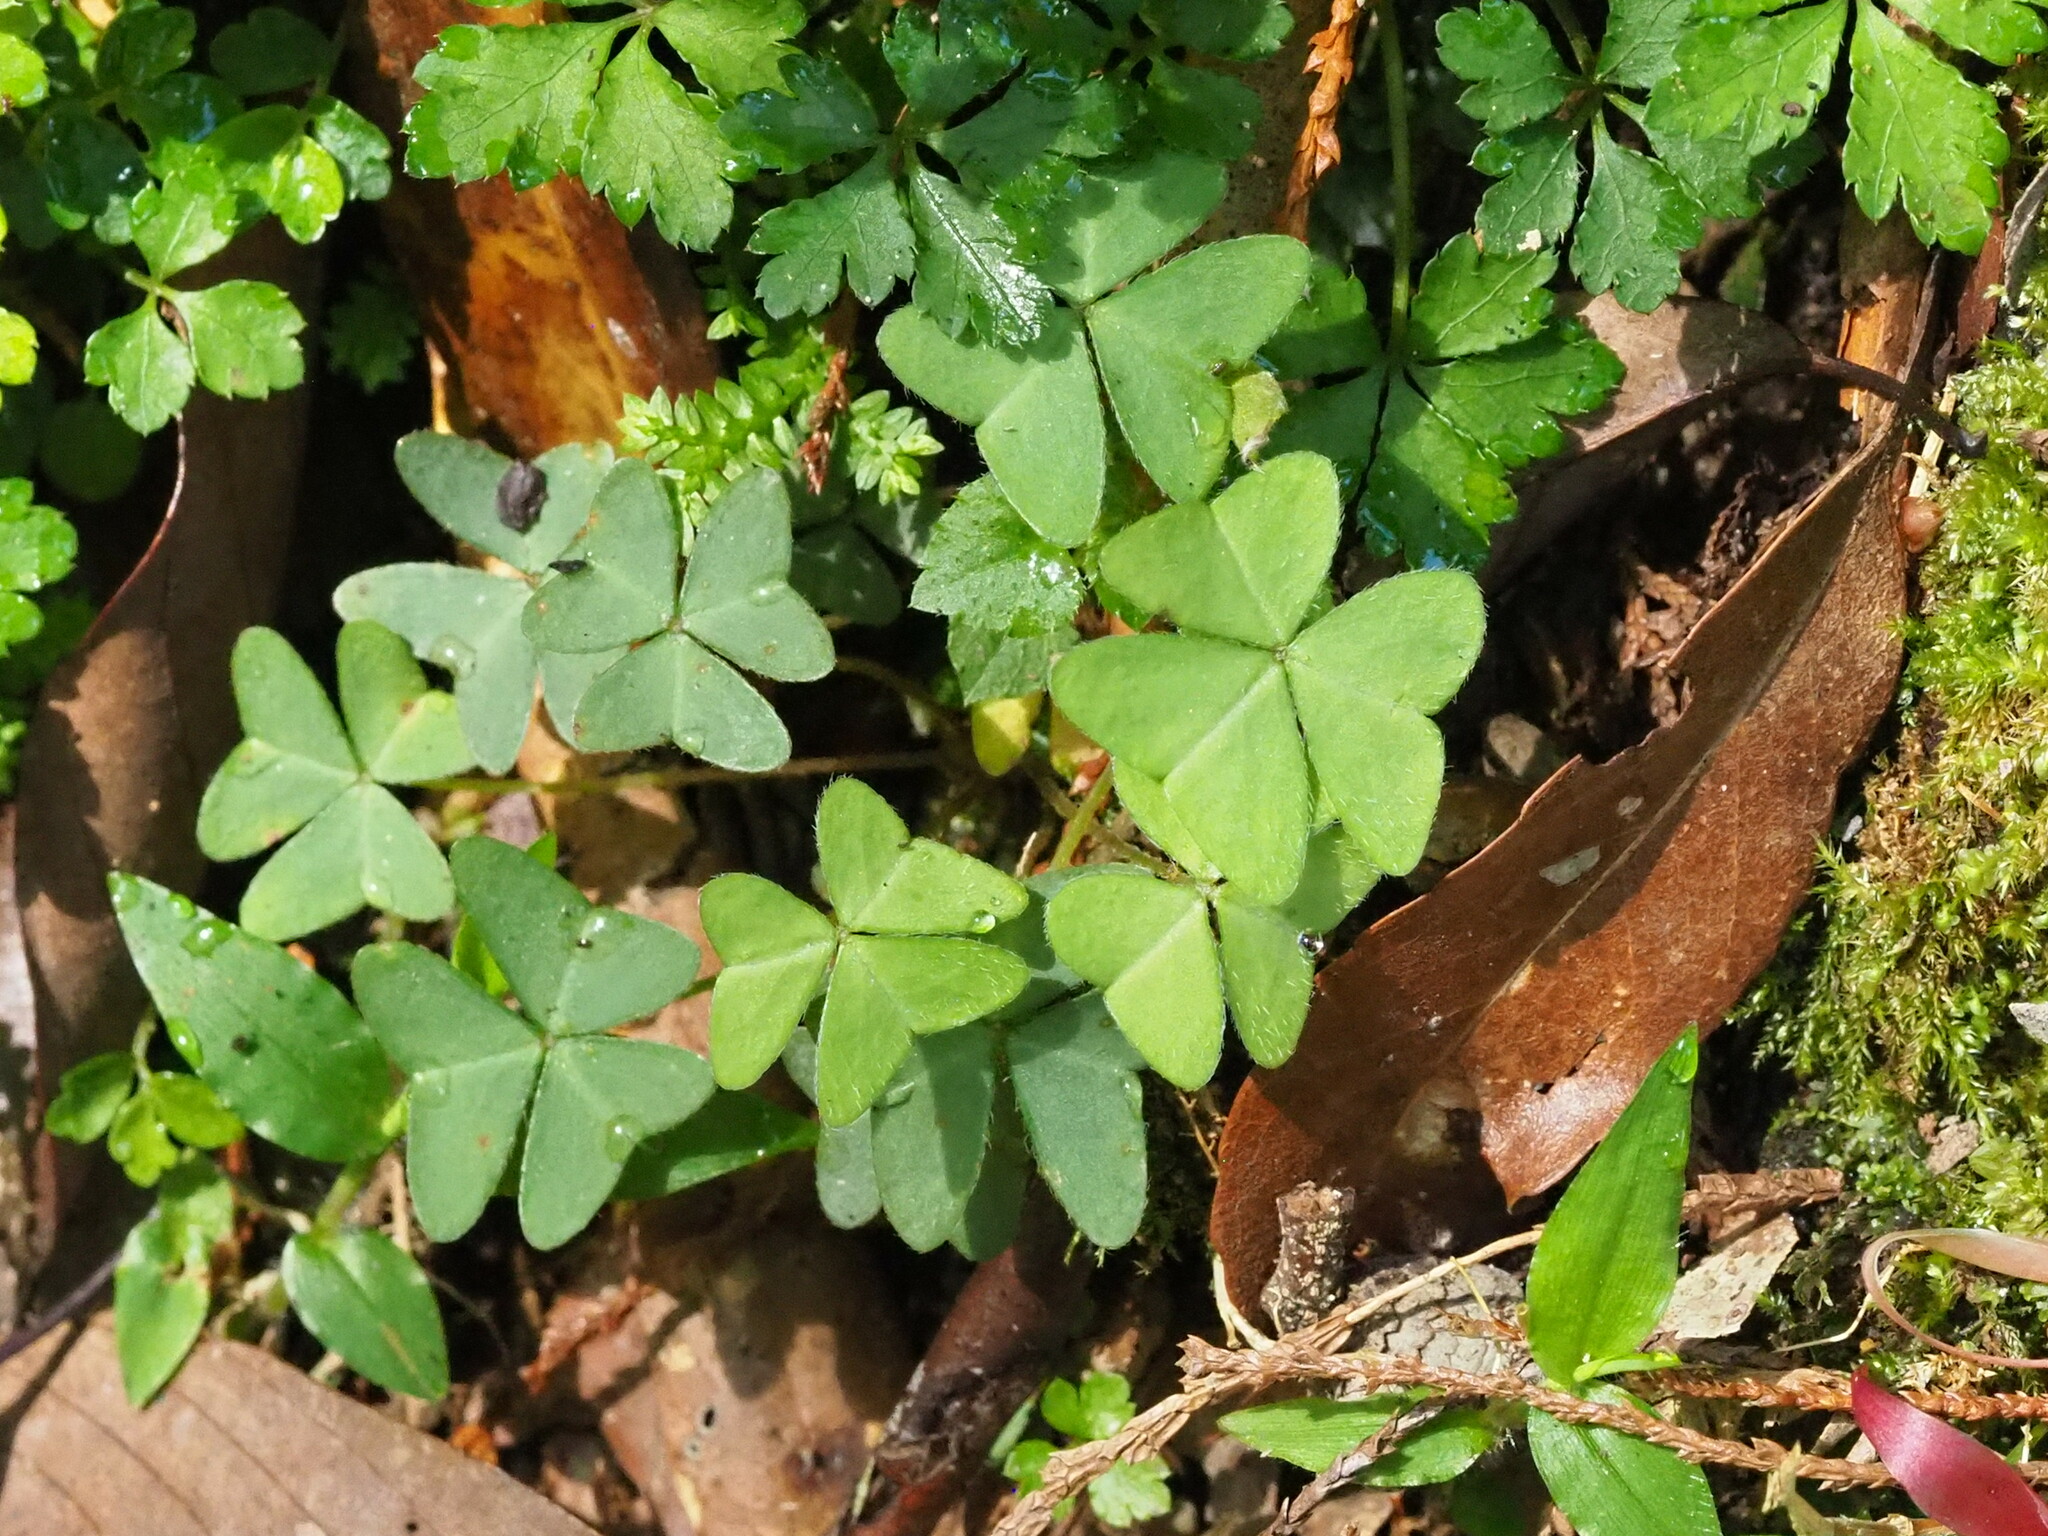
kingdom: Plantae
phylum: Tracheophyta
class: Magnoliopsida
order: Oxalidales
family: Oxalidaceae
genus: Oxalis
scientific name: Oxalis griffithii
